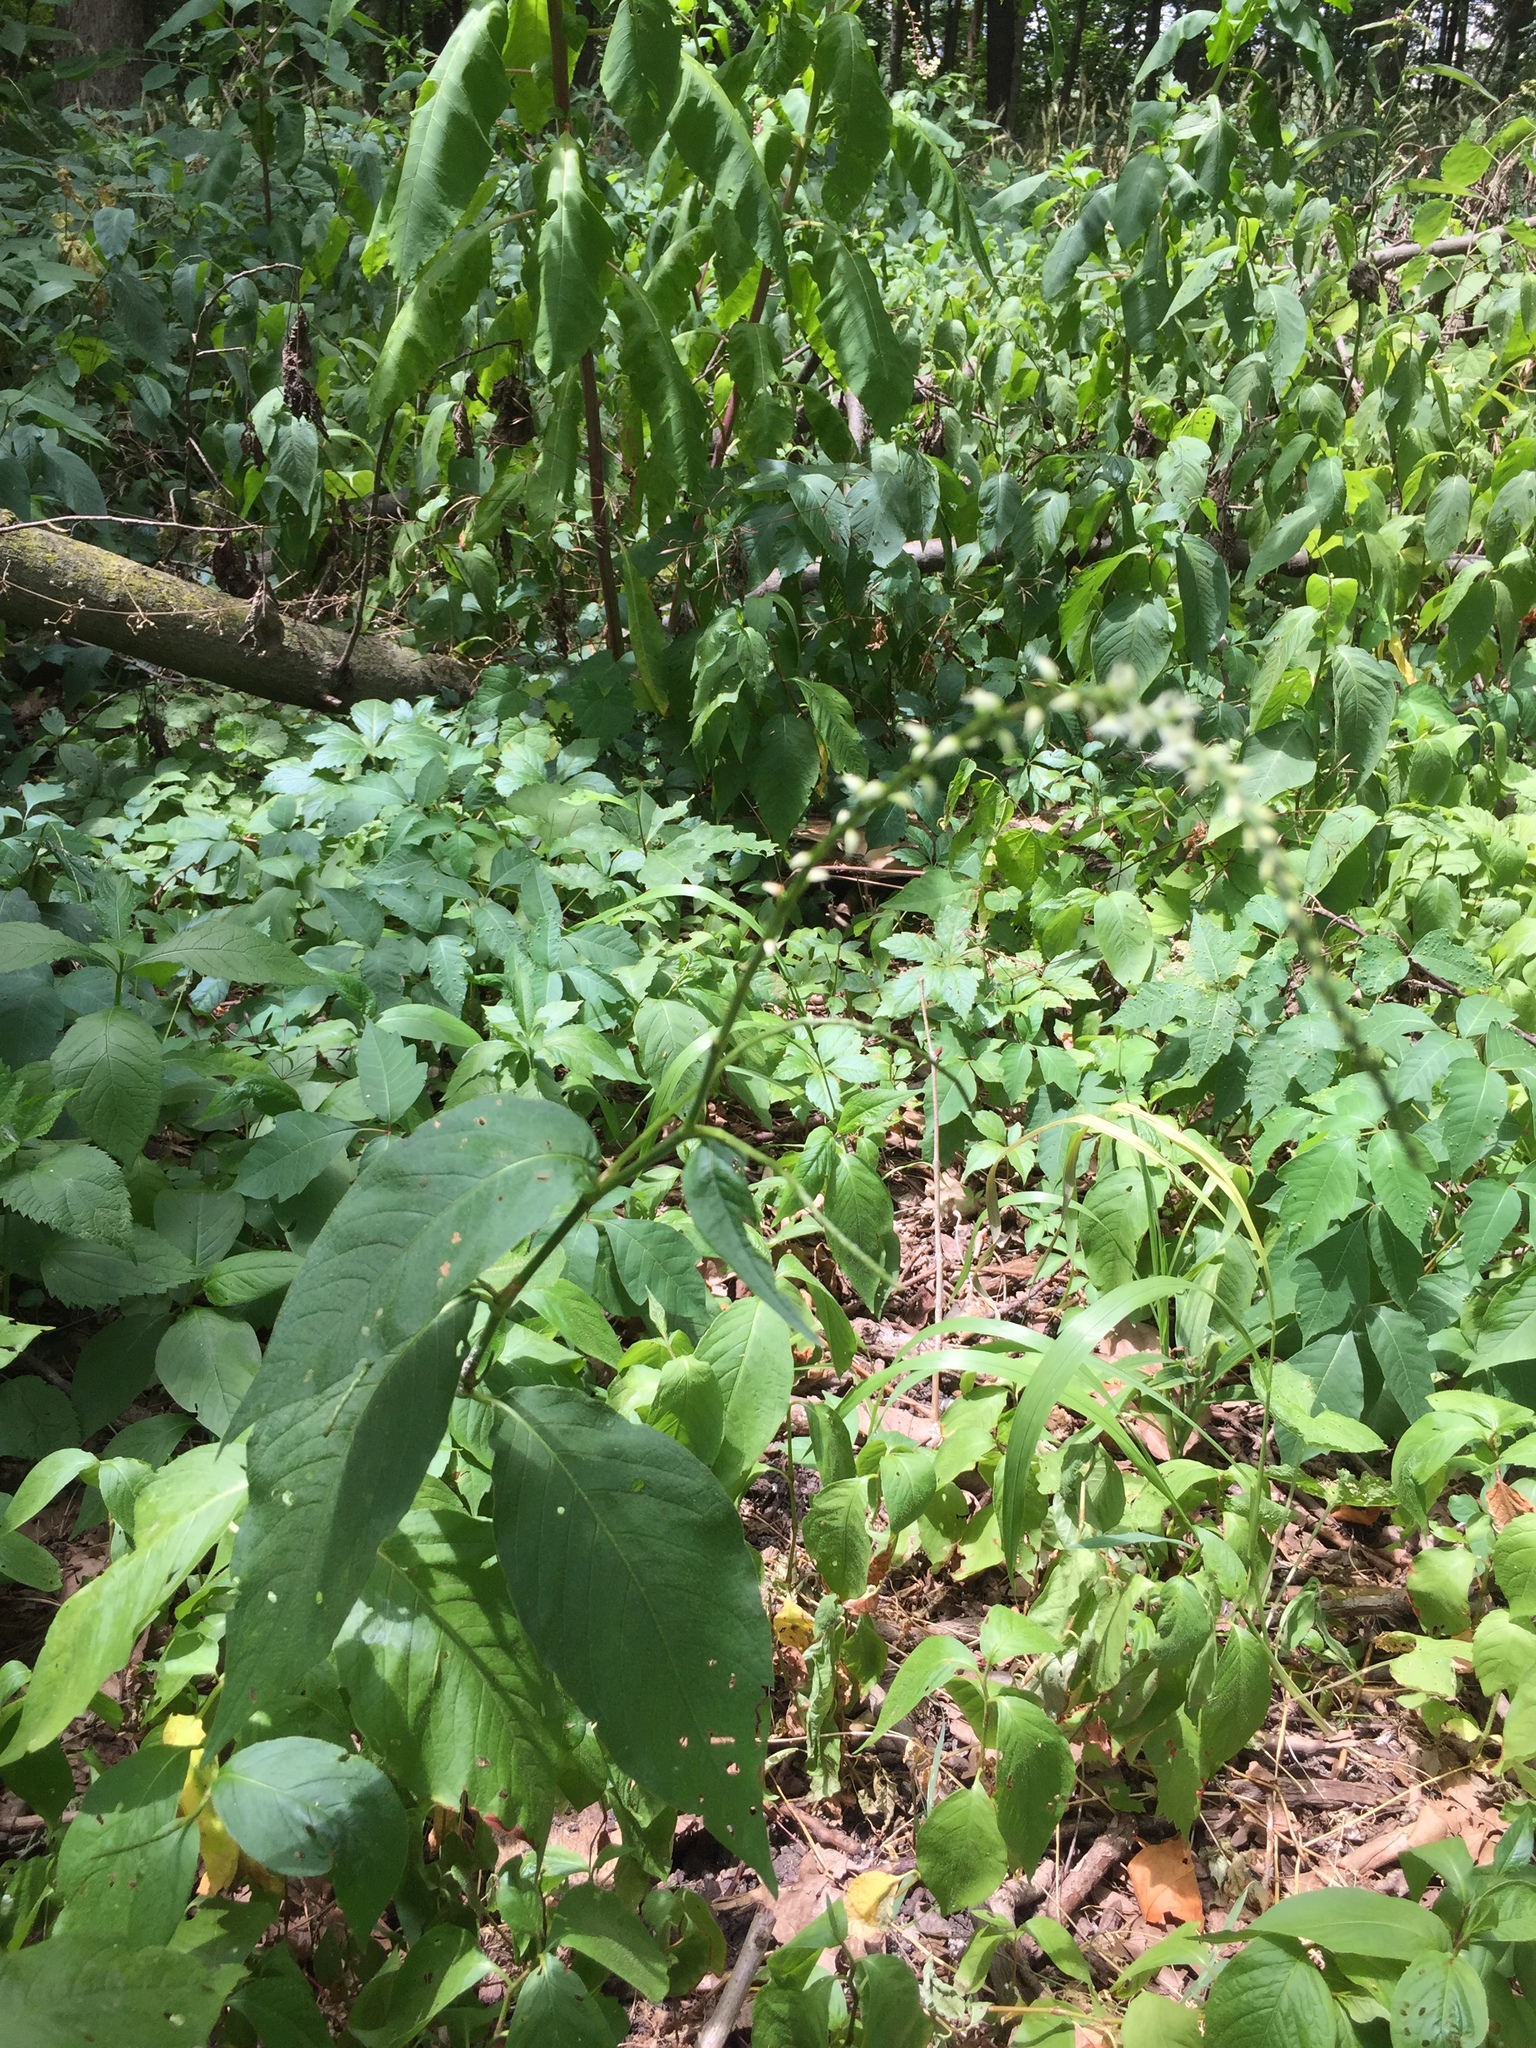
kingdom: Plantae
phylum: Tracheophyta
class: Magnoliopsida
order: Caryophyllales
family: Polygonaceae
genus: Persicaria
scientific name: Persicaria virginiana
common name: Jumpseed
